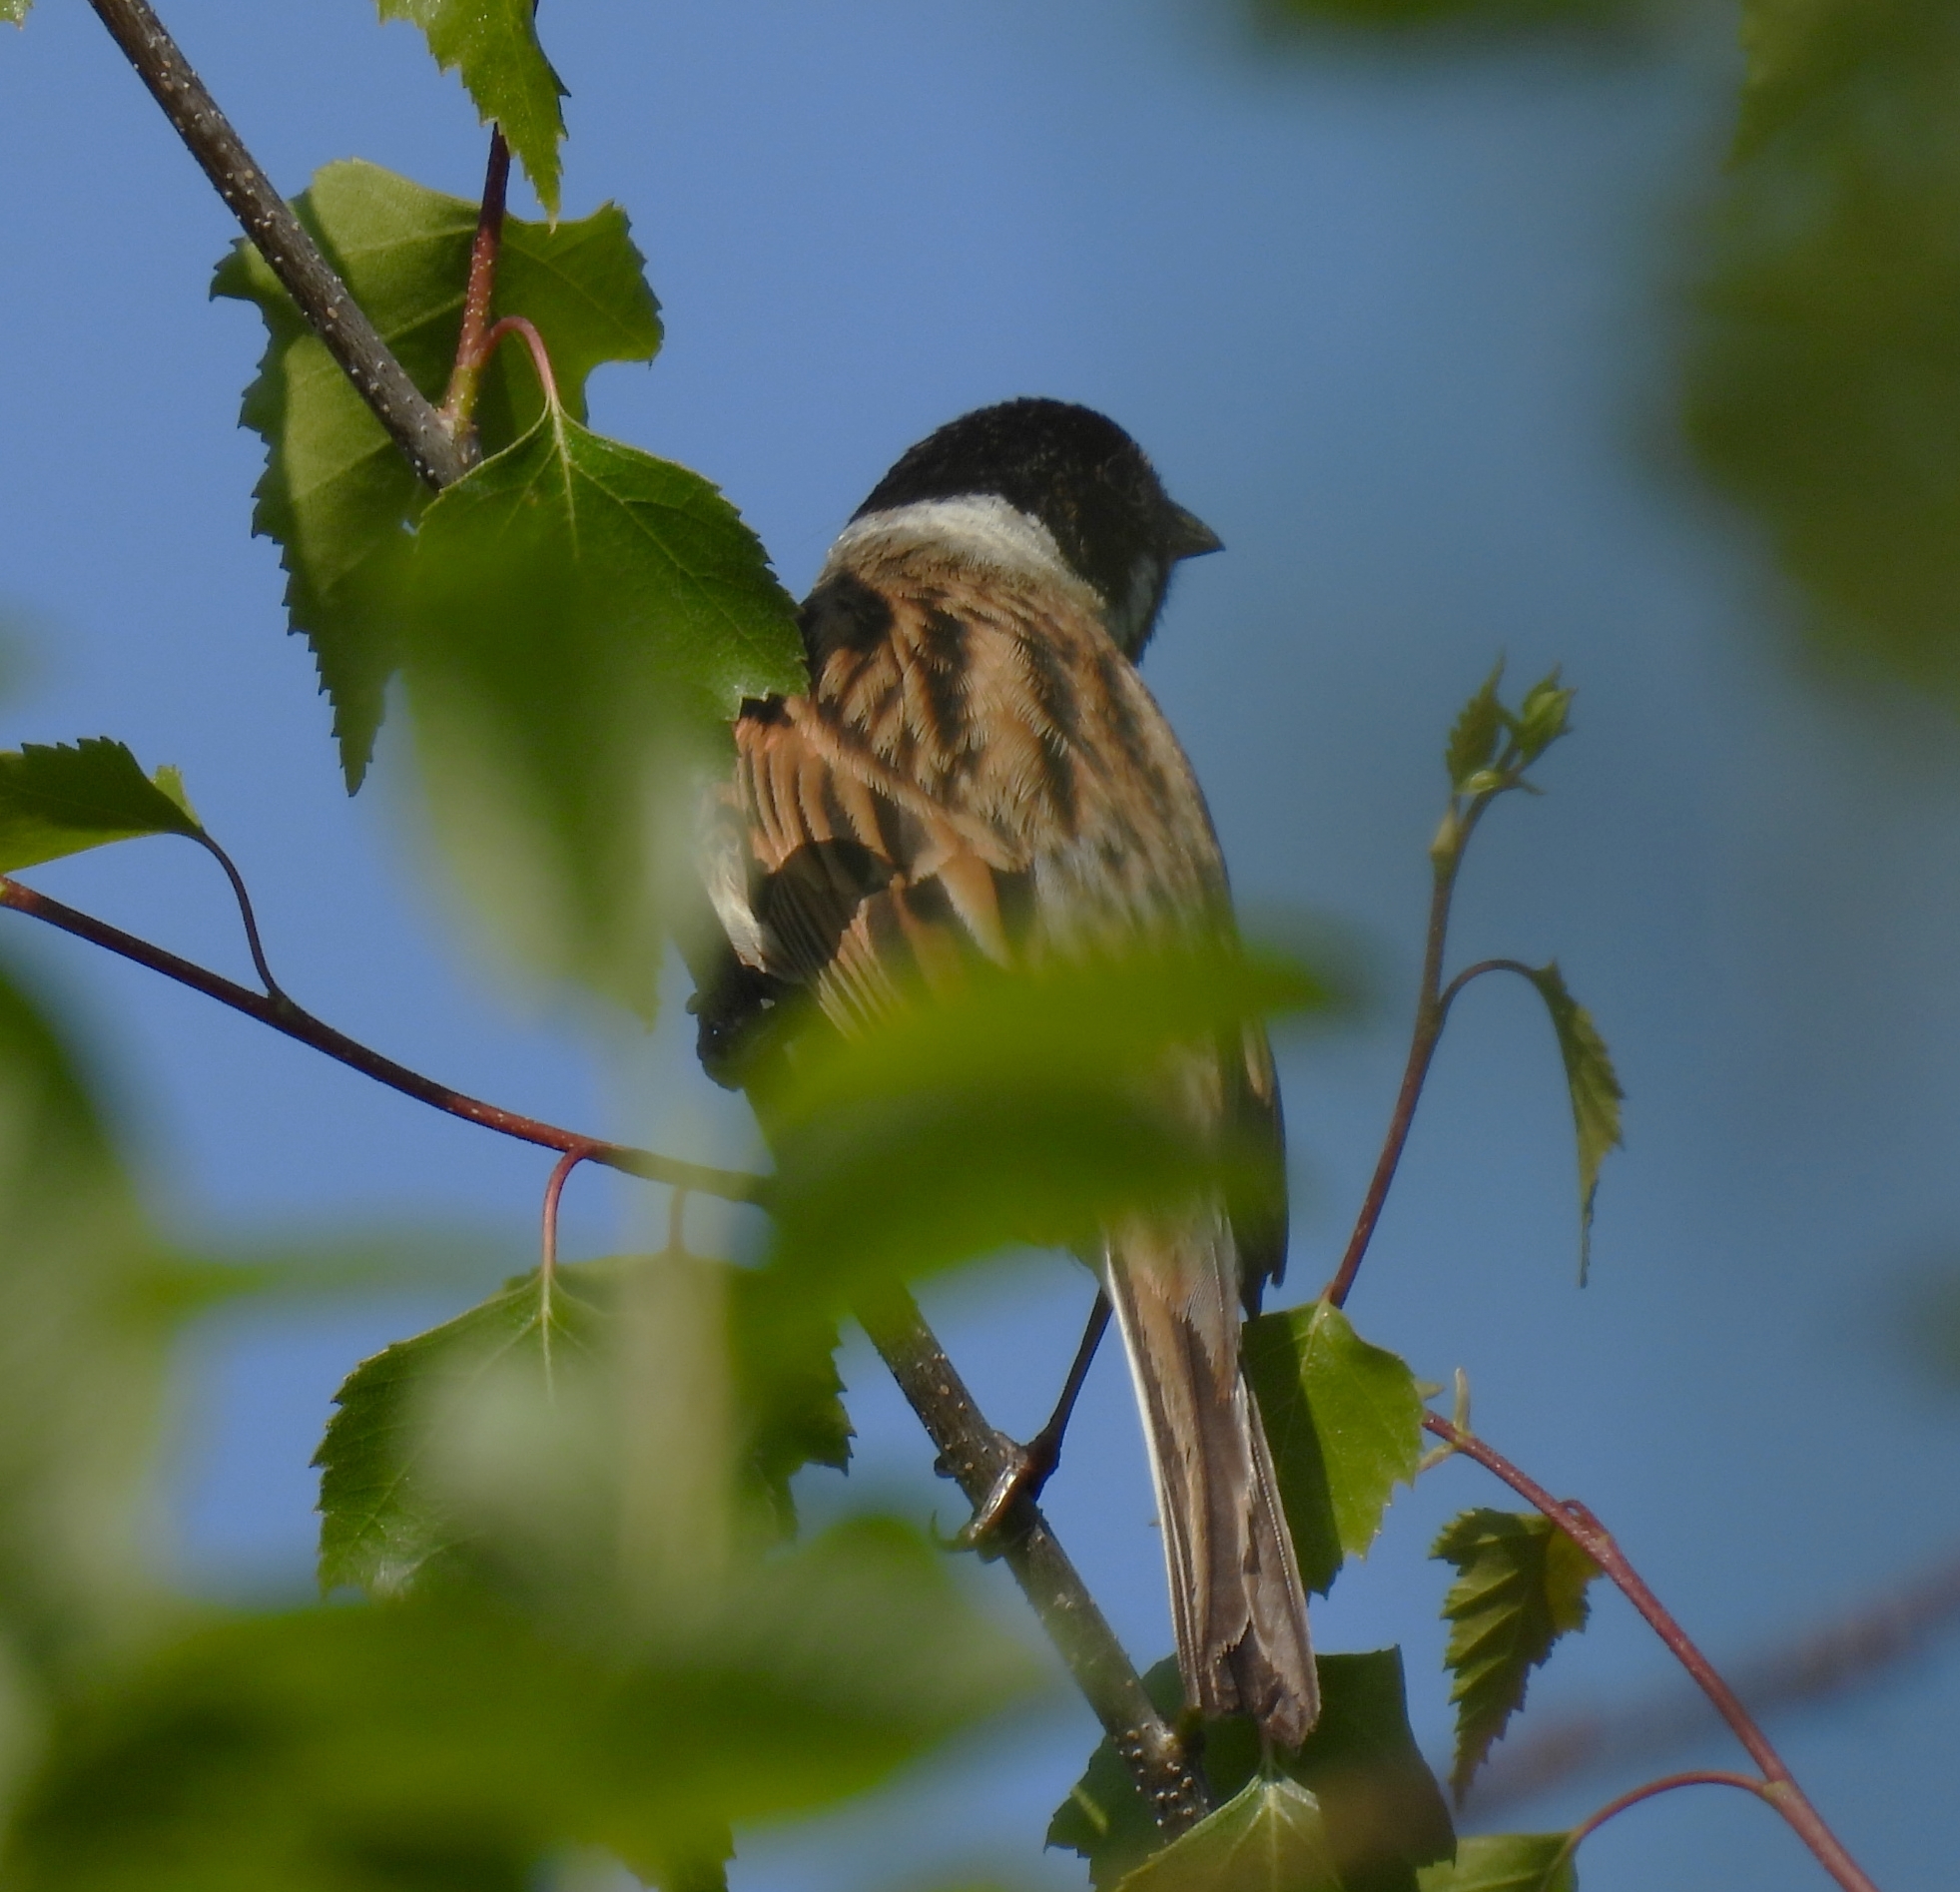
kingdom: Animalia
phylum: Chordata
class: Aves
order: Passeriformes
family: Emberizidae
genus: Emberiza
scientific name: Emberiza schoeniclus
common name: Reed bunting
